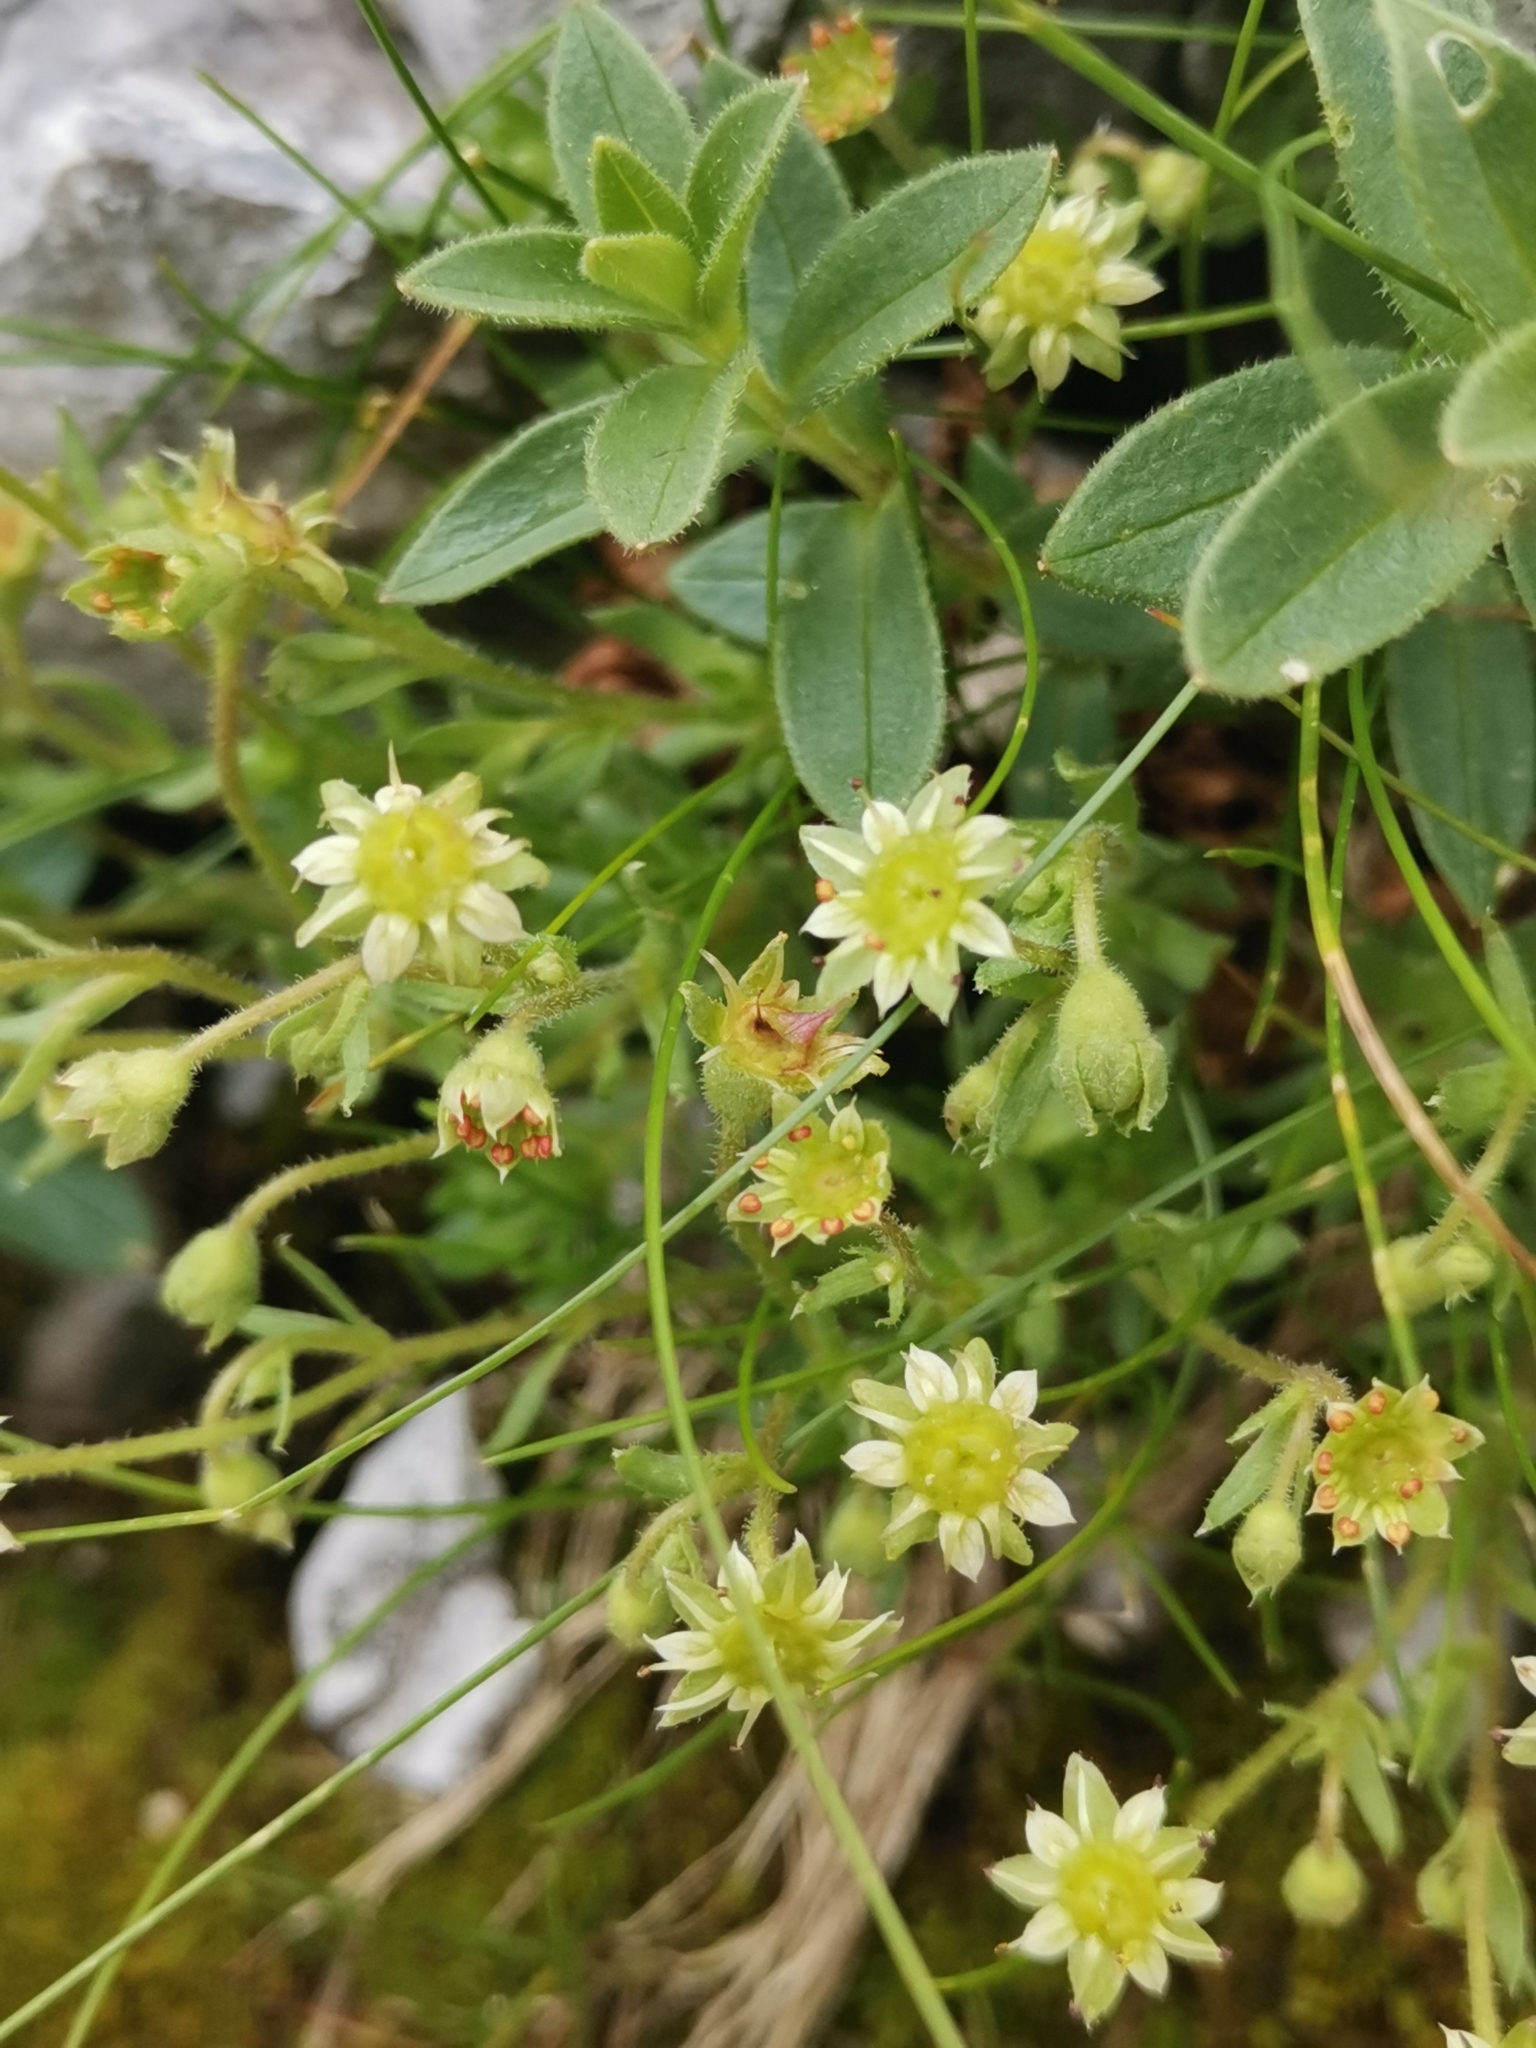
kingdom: Plantae
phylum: Tracheophyta
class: Magnoliopsida
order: Saxifragales
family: Saxifragaceae
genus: Saxifraga
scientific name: Saxifraga sedoides
